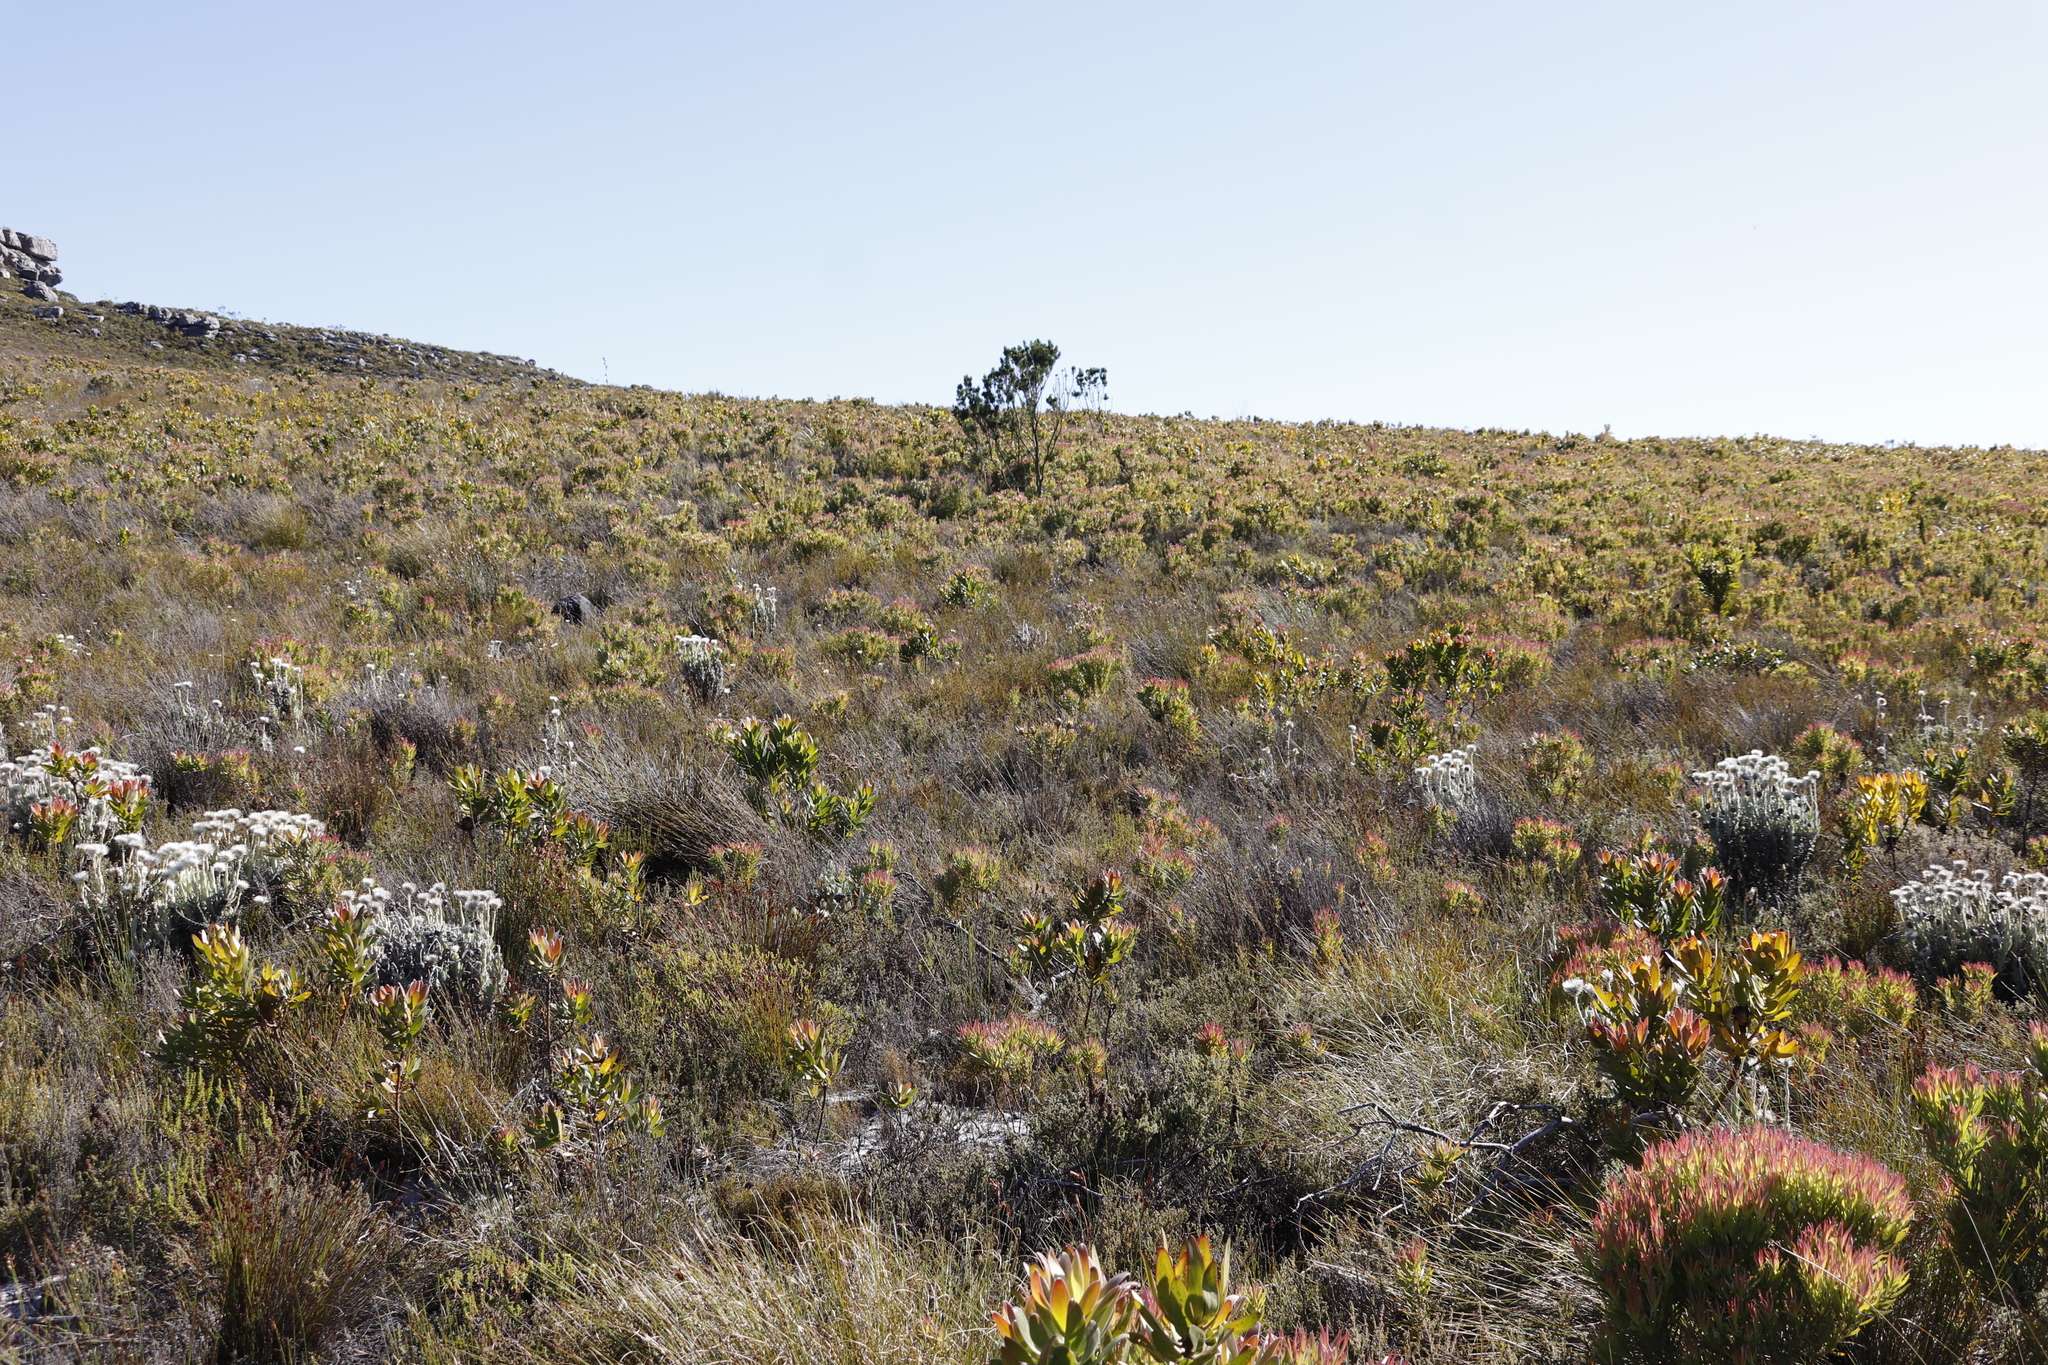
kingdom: Plantae
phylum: Tracheophyta
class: Magnoliopsida
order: Asterales
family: Asteraceae
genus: Syncarpha
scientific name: Syncarpha vestita
